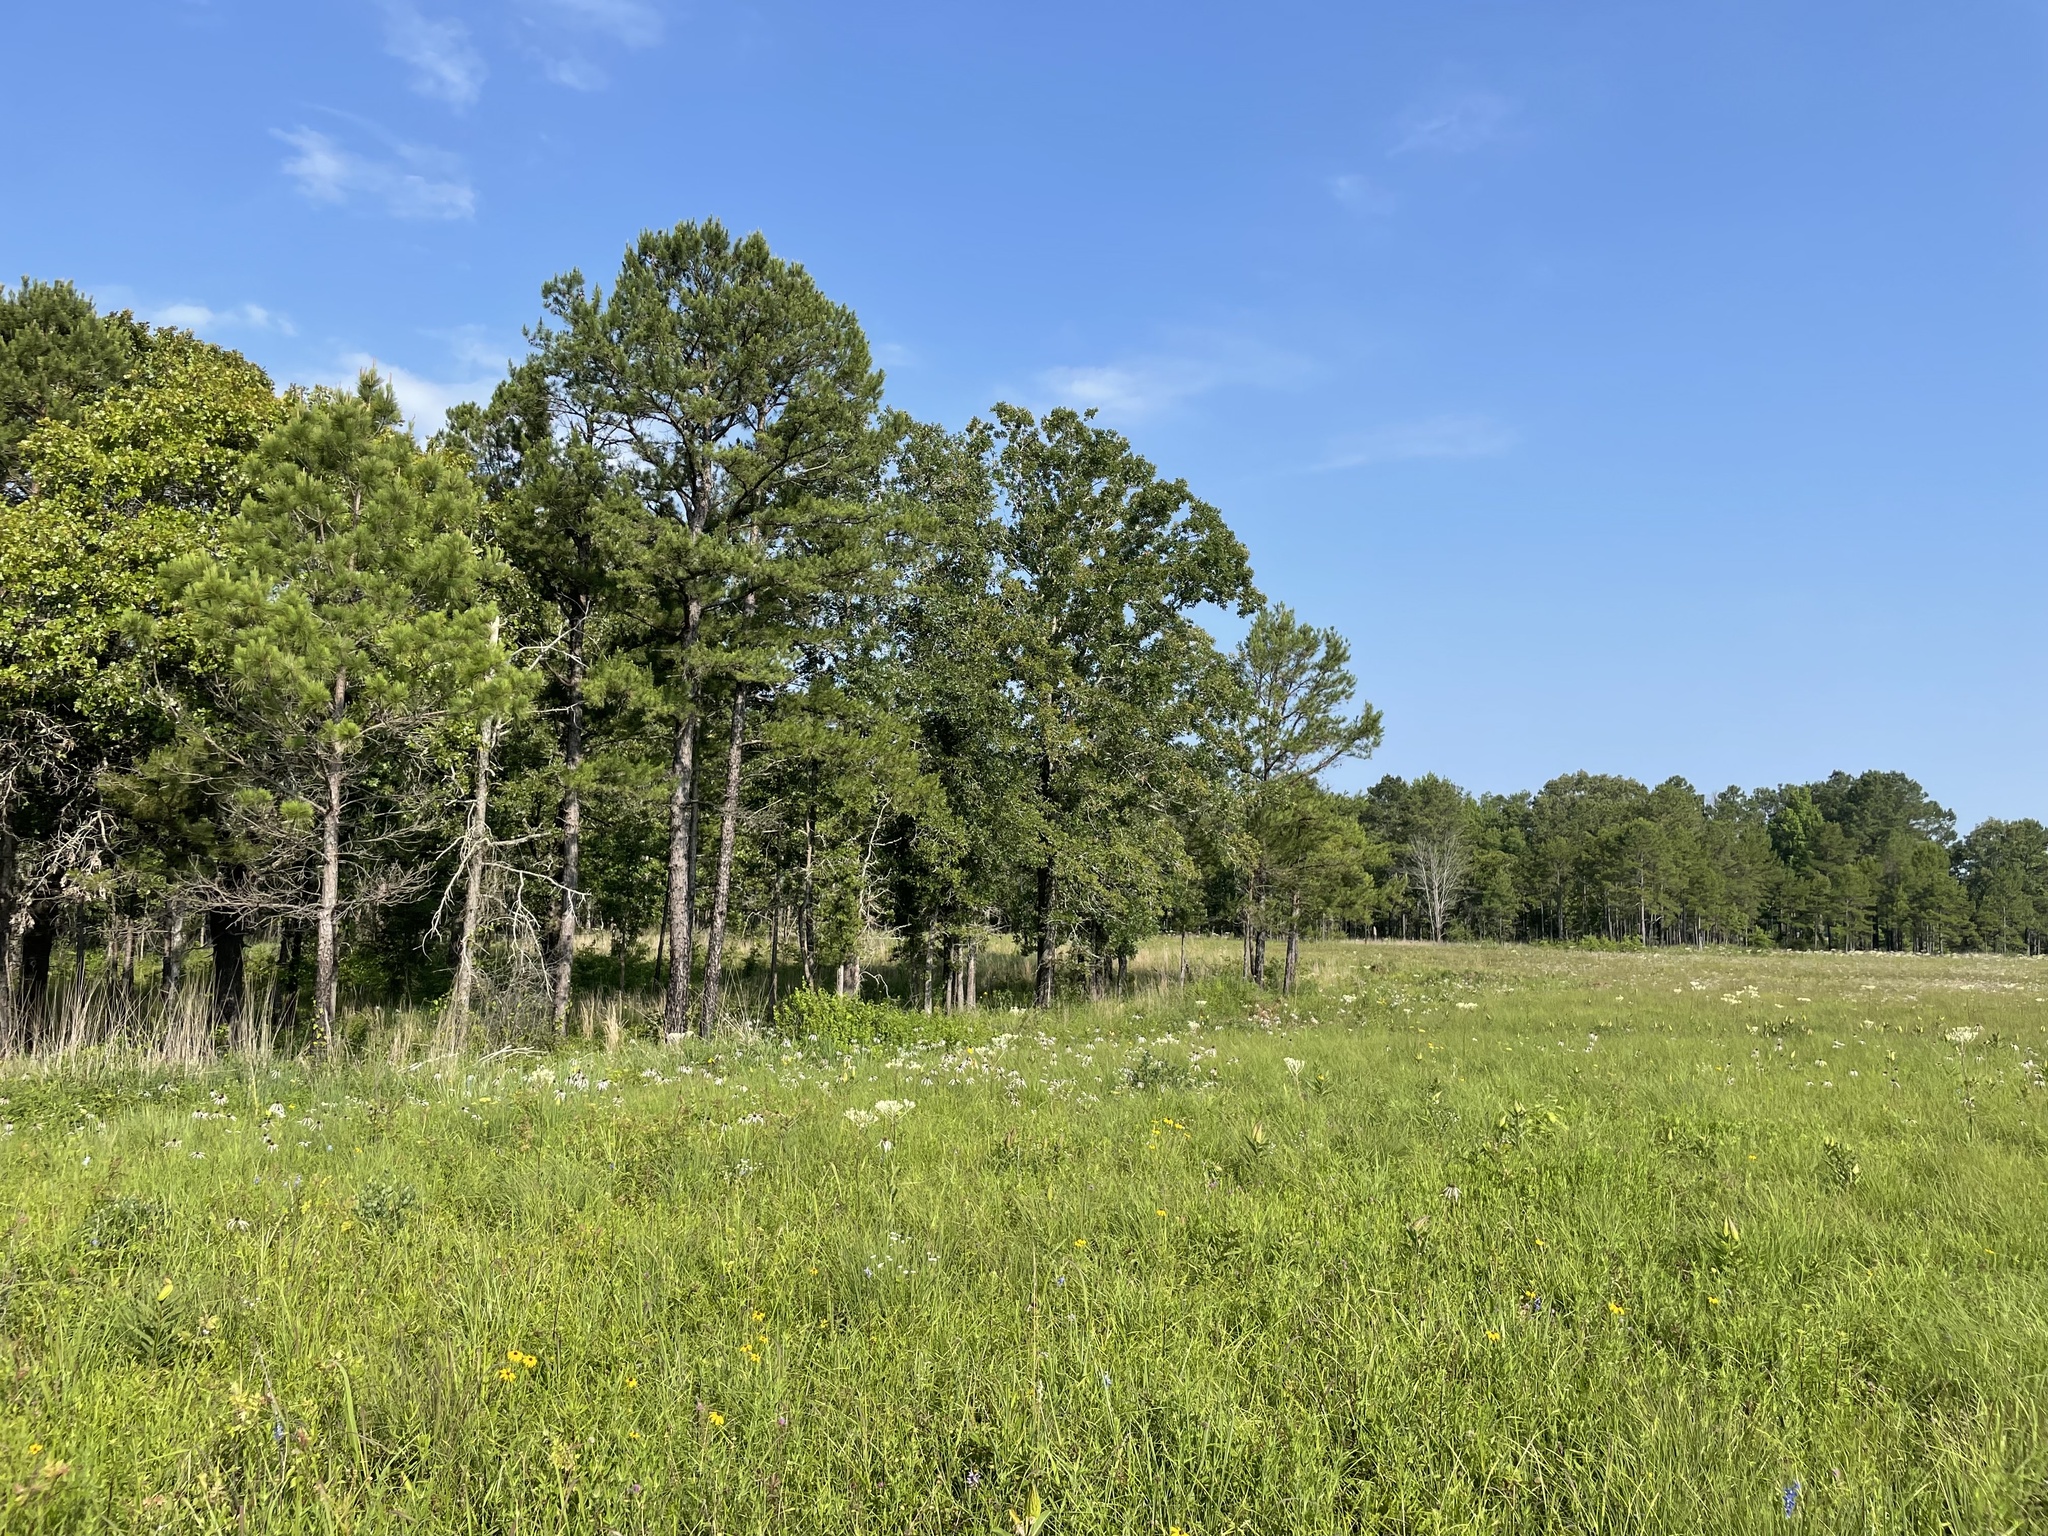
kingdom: Plantae
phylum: Tracheophyta
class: Magnoliopsida
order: Fagales
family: Fagaceae
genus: Quercus
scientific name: Quercus stellata
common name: Post oak
